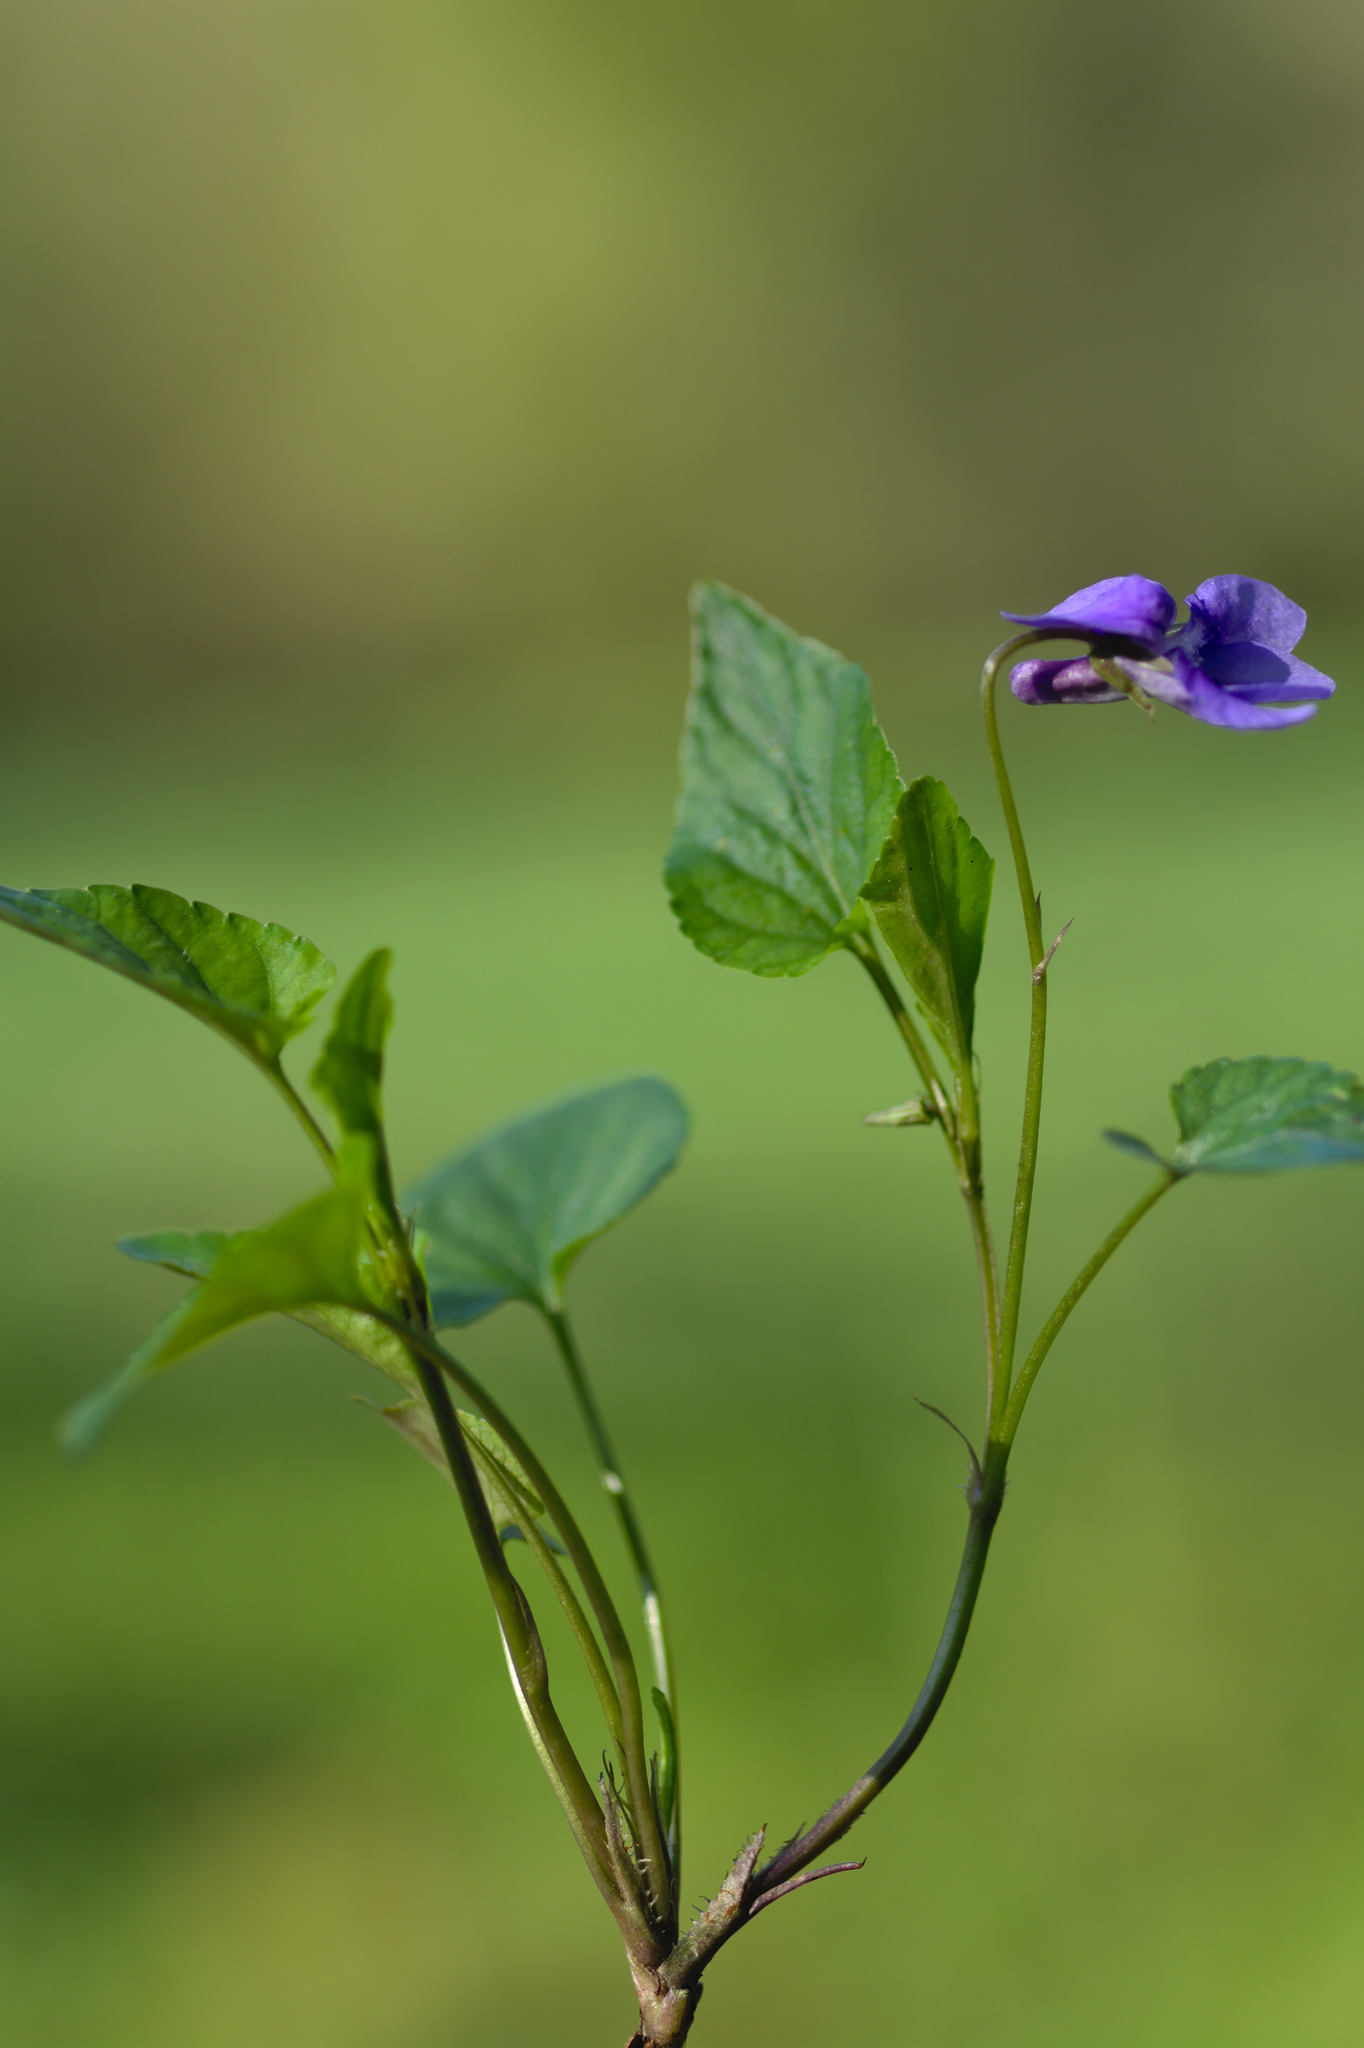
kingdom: Plantae
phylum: Tracheophyta
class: Magnoliopsida
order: Malpighiales
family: Violaceae
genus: Viola
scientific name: Viola reichenbachiana
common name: Early dog-violet
